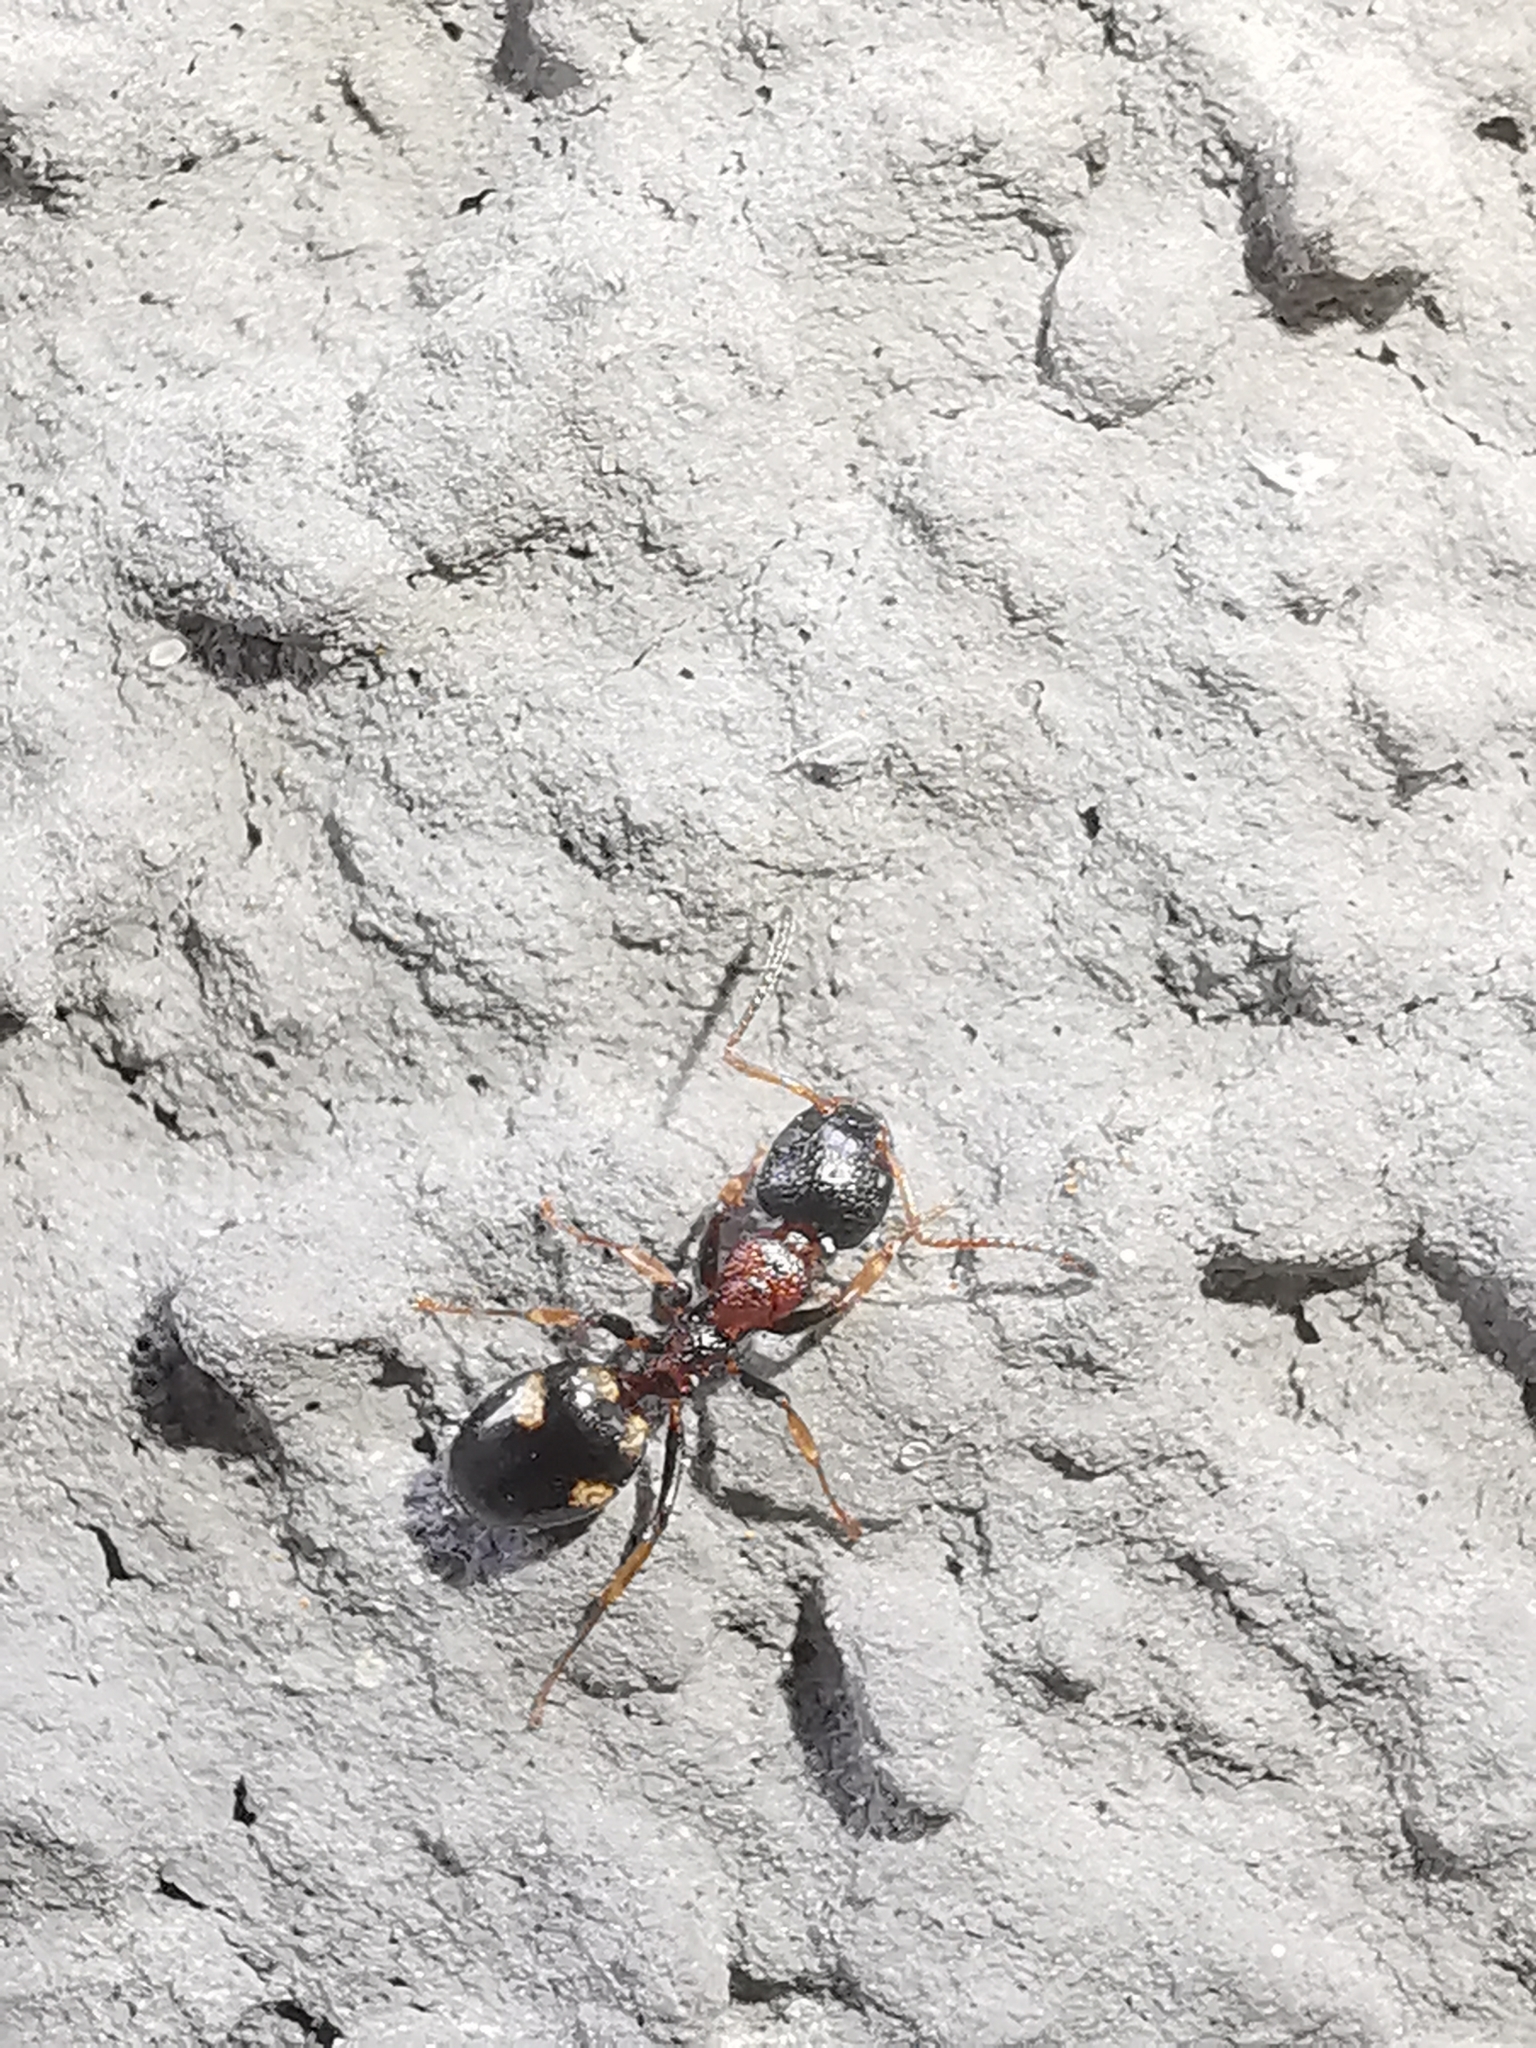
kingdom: Animalia
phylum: Arthropoda
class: Insecta
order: Hymenoptera
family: Formicidae
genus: Dolichoderus
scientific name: Dolichoderus quadripunctatus
